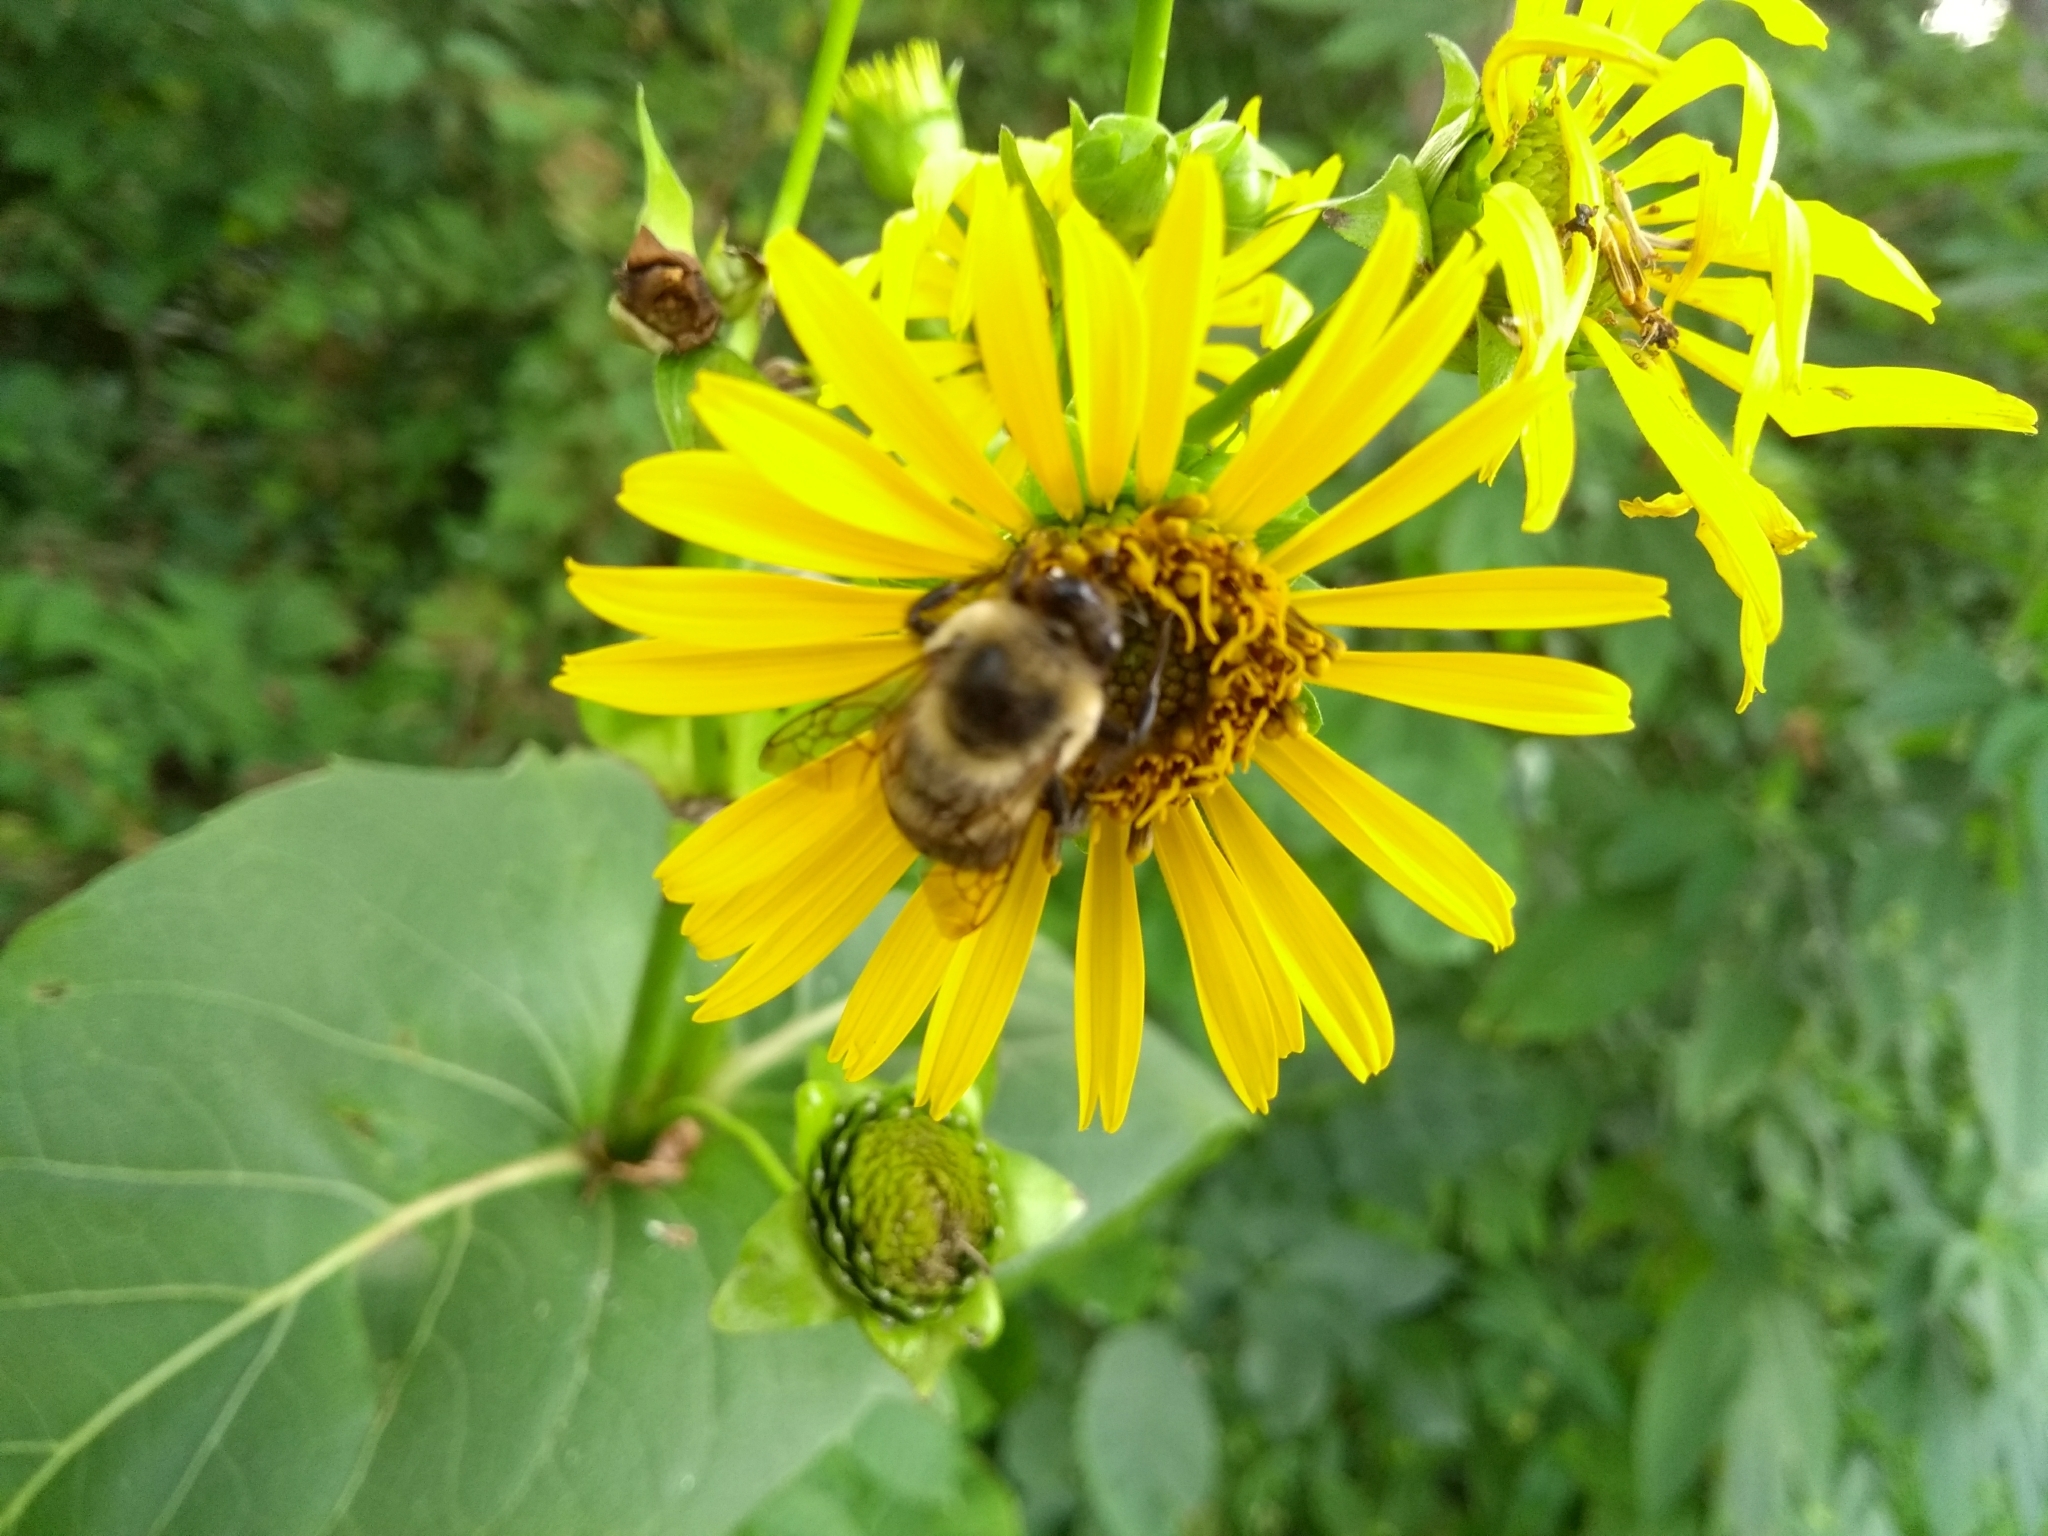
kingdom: Animalia
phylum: Arthropoda
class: Insecta
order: Hymenoptera
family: Apidae
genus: Bombus
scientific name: Bombus griseocollis
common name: Brown-belted bumble bee
